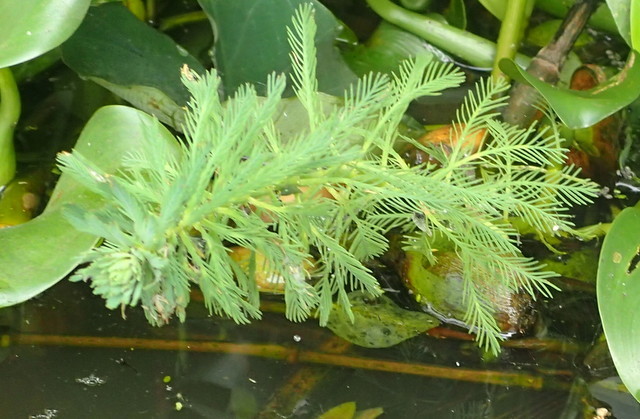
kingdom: Plantae
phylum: Tracheophyta
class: Magnoliopsida
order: Saxifragales
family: Haloragaceae
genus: Myriophyllum
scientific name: Myriophyllum aquaticum
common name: Parrot's feather
